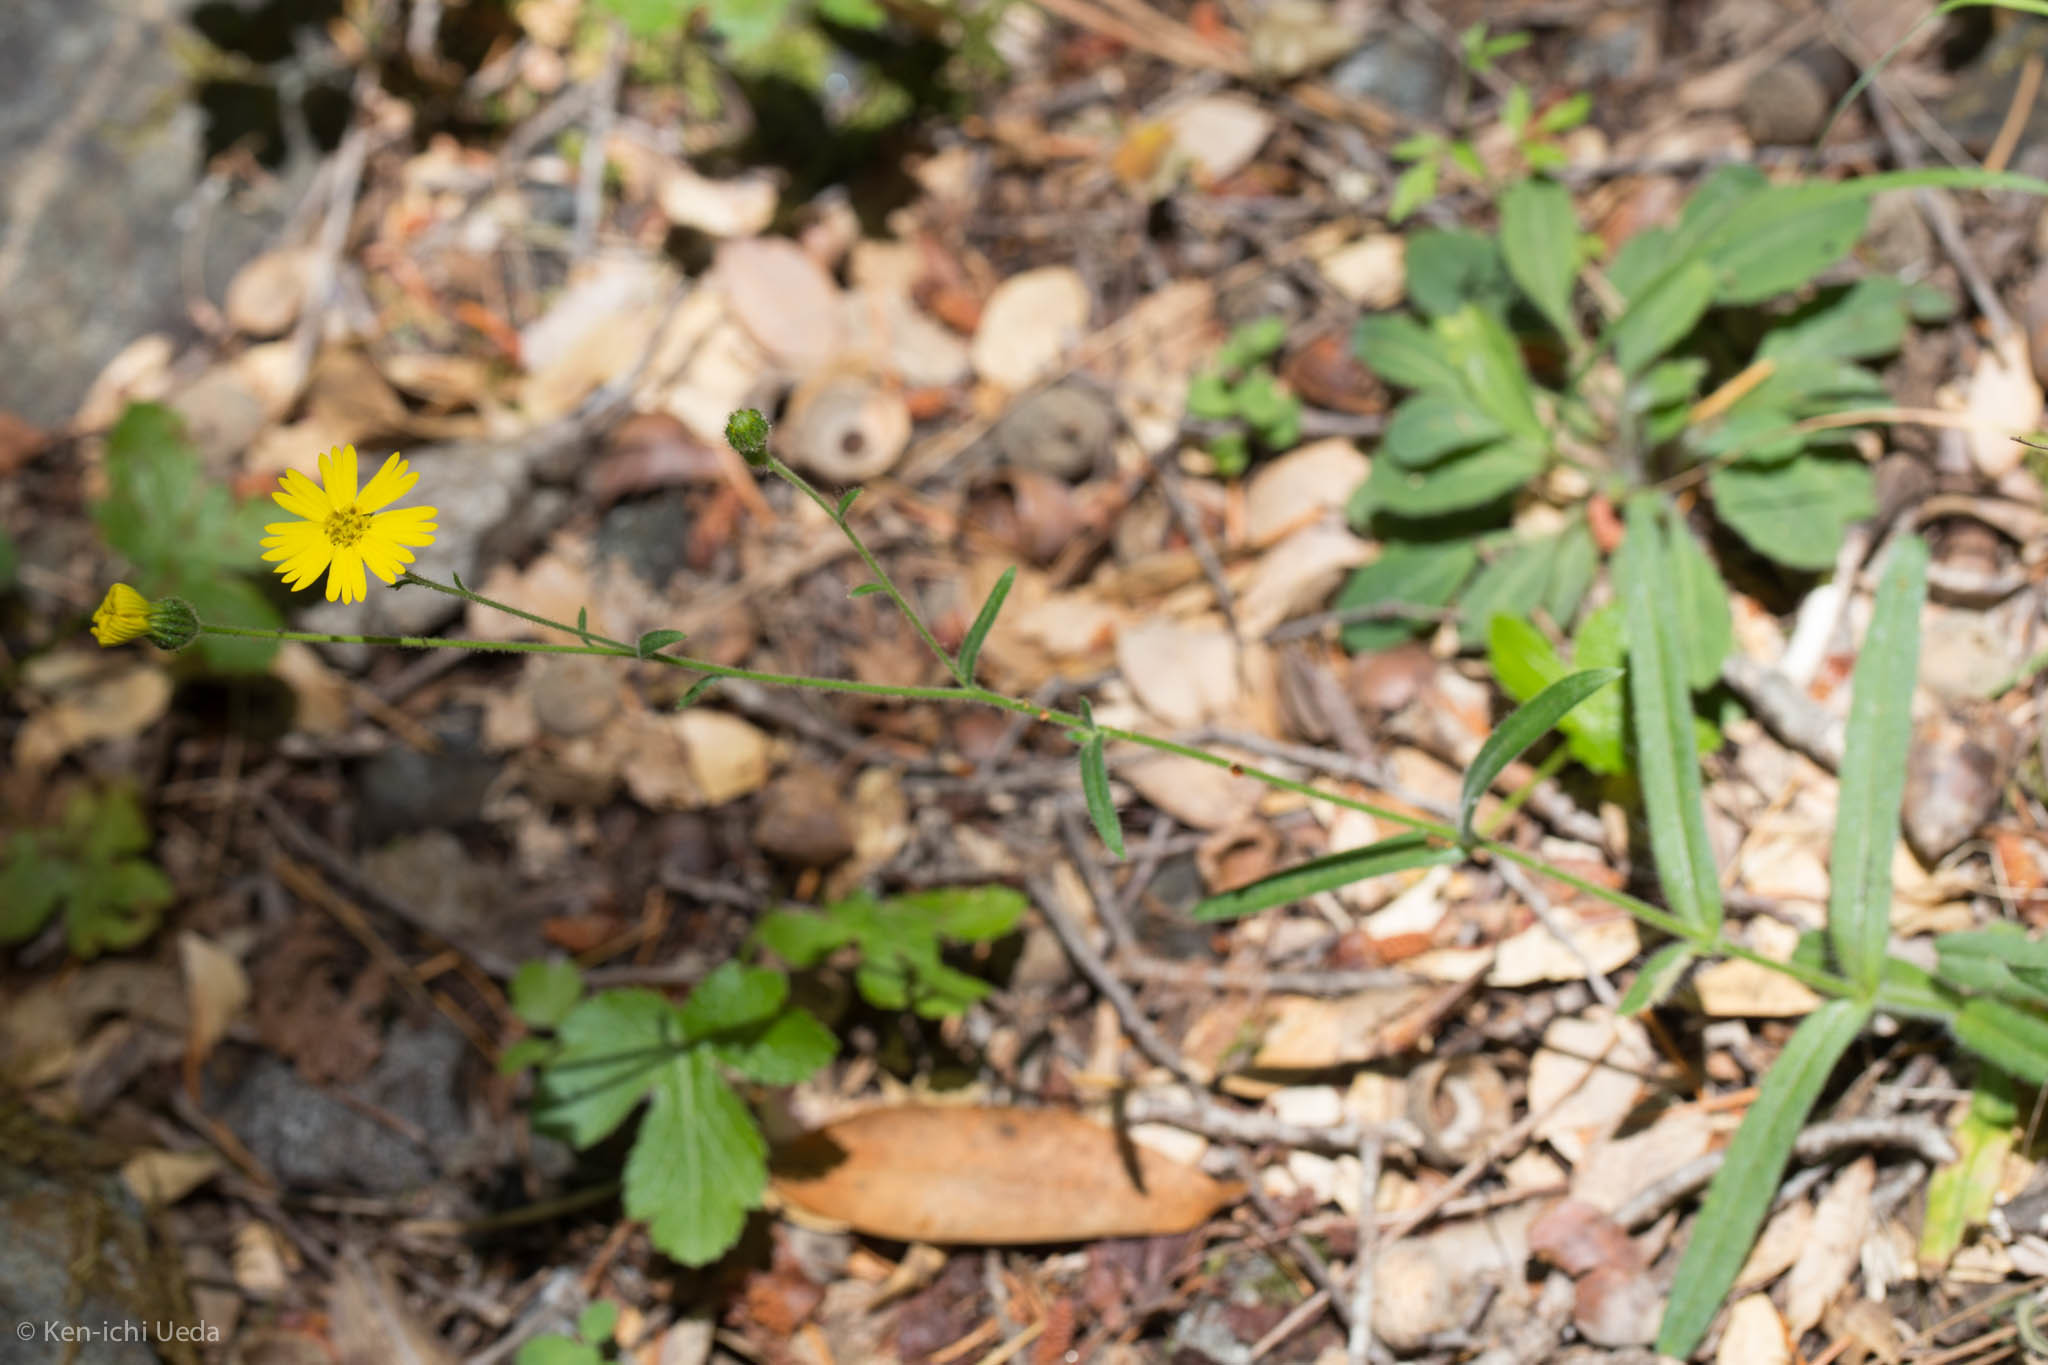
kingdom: Plantae
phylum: Tracheophyta
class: Magnoliopsida
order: Asterales
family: Asteraceae
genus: Anisocarpus
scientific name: Anisocarpus madioides
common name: Woodland madia
